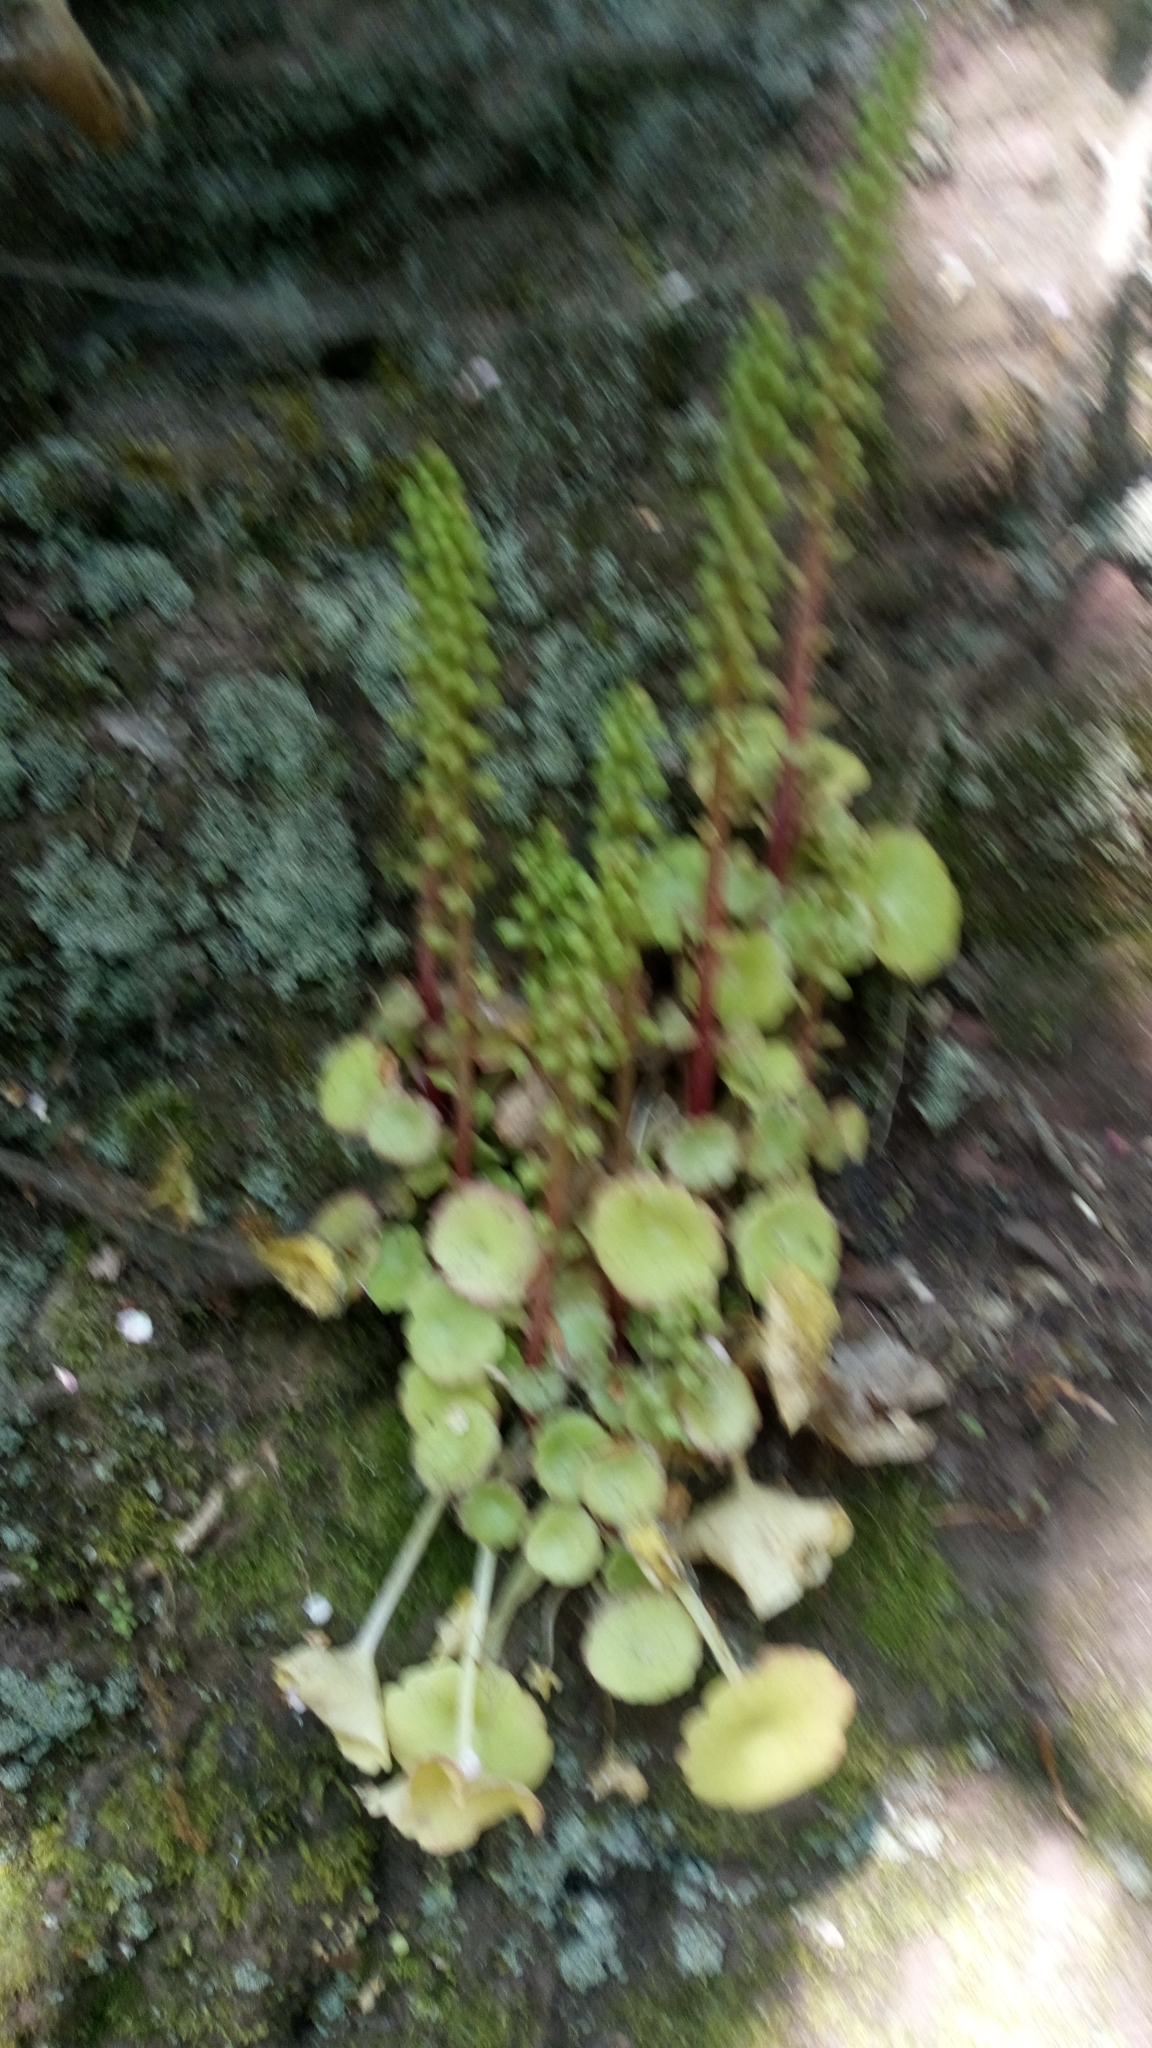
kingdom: Plantae
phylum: Tracheophyta
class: Magnoliopsida
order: Saxifragales
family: Crassulaceae
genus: Umbilicus
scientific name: Umbilicus rupestris
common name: Navelwort
